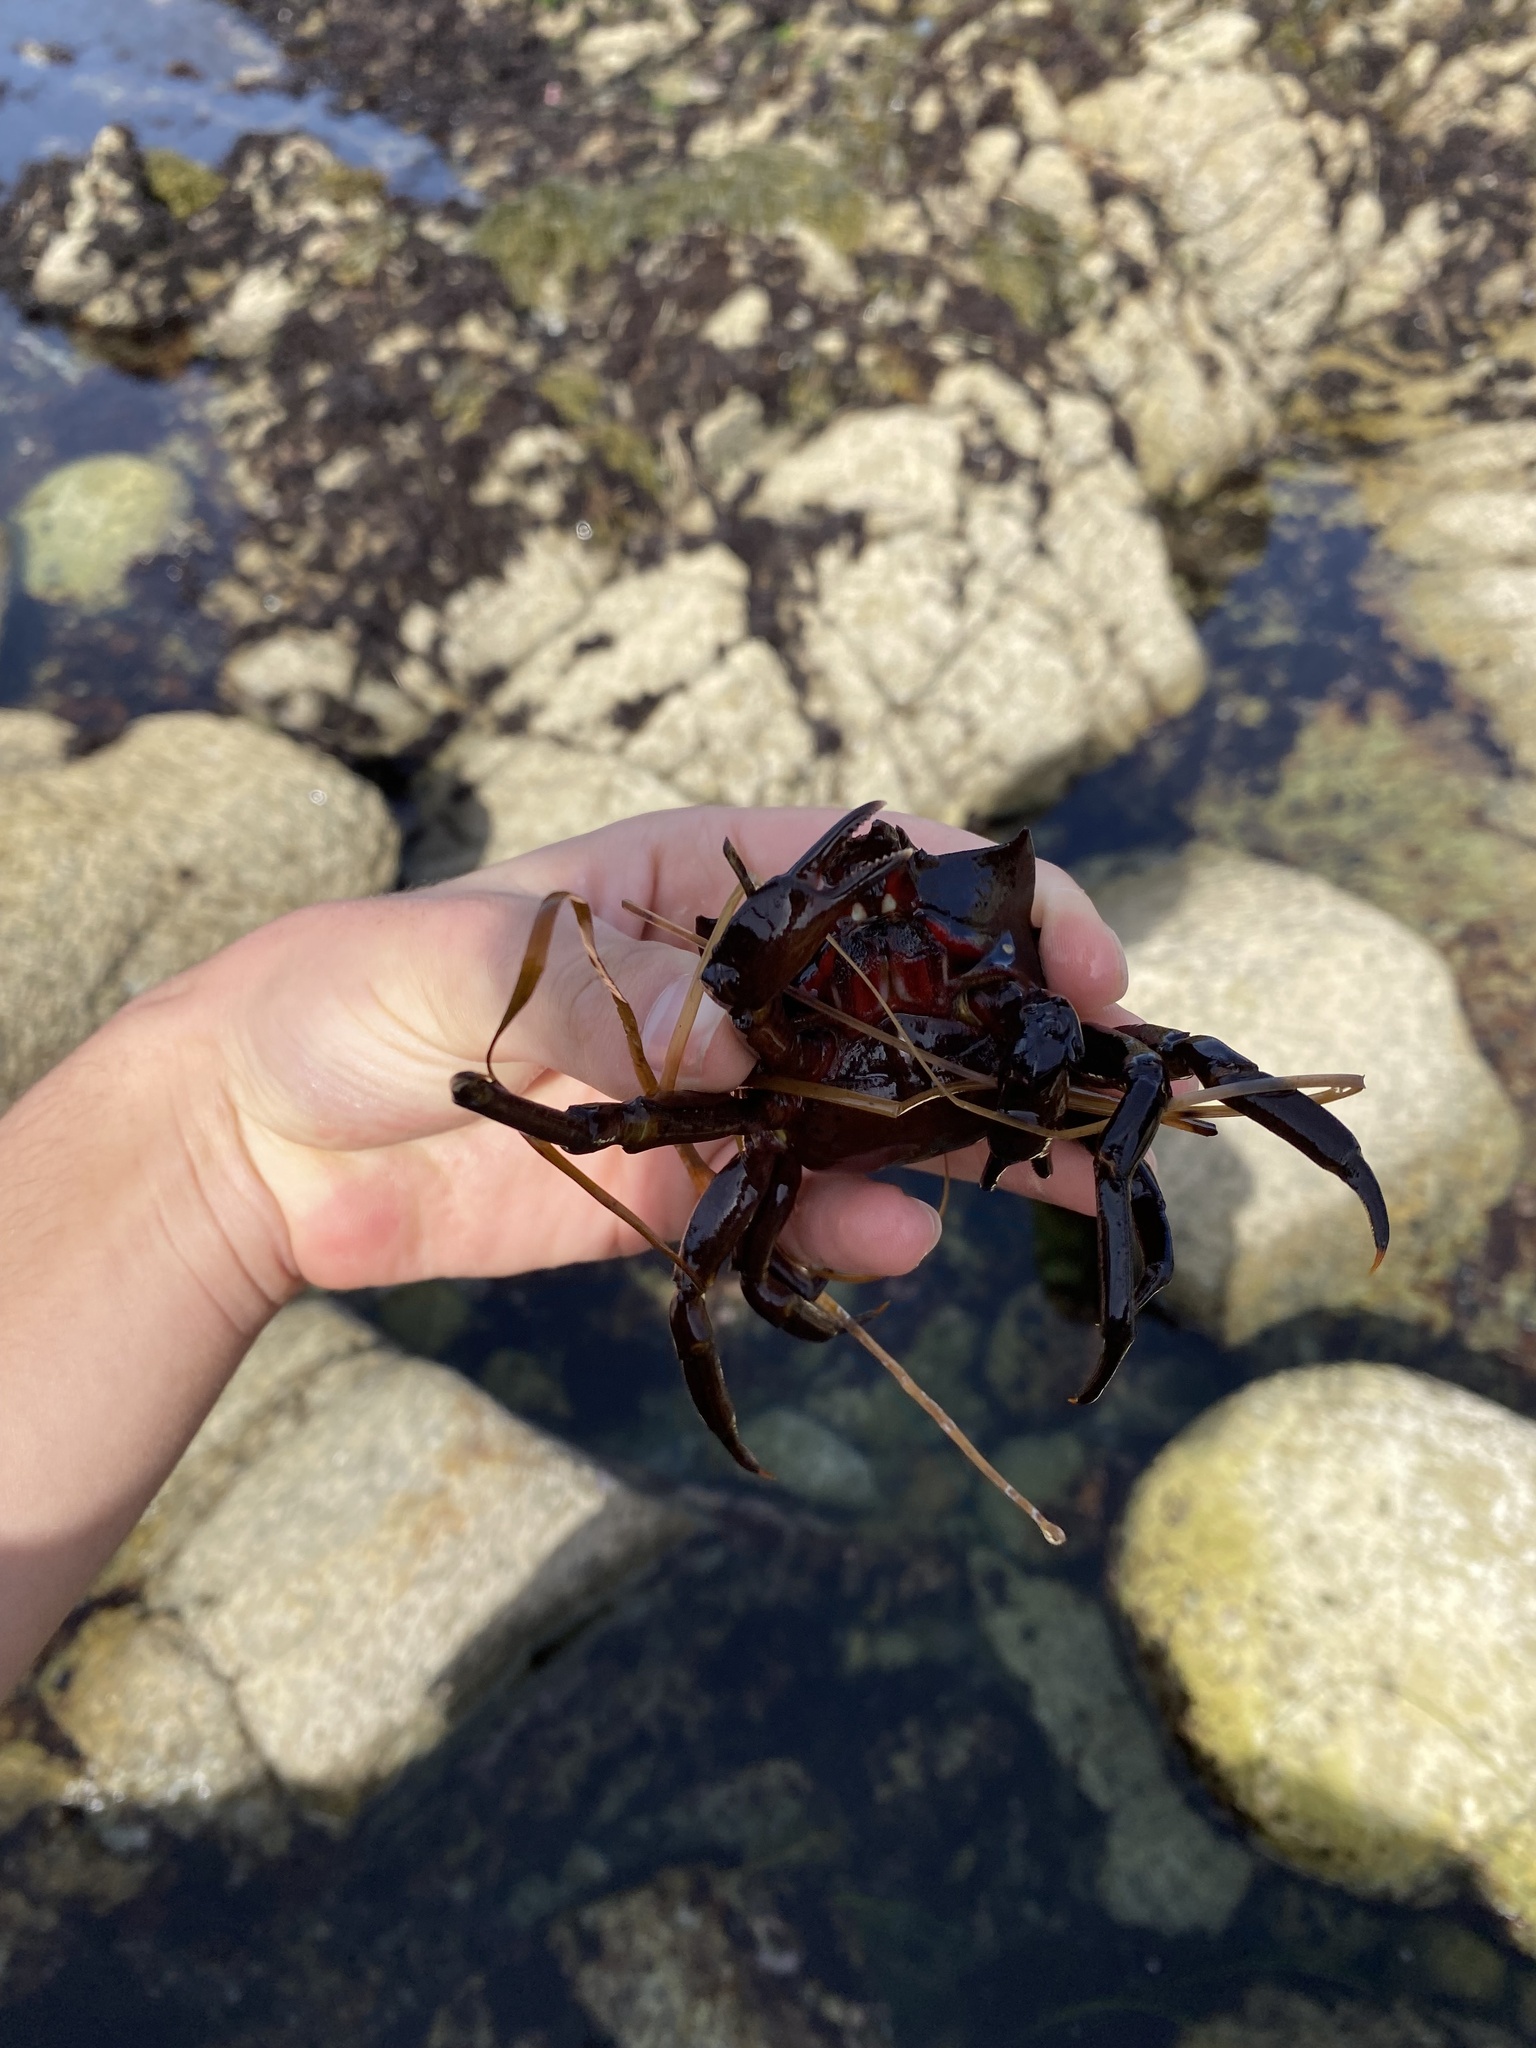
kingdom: Animalia
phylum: Arthropoda
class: Malacostraca
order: Decapoda
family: Epialtidae
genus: Pugettia
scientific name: Pugettia producta
